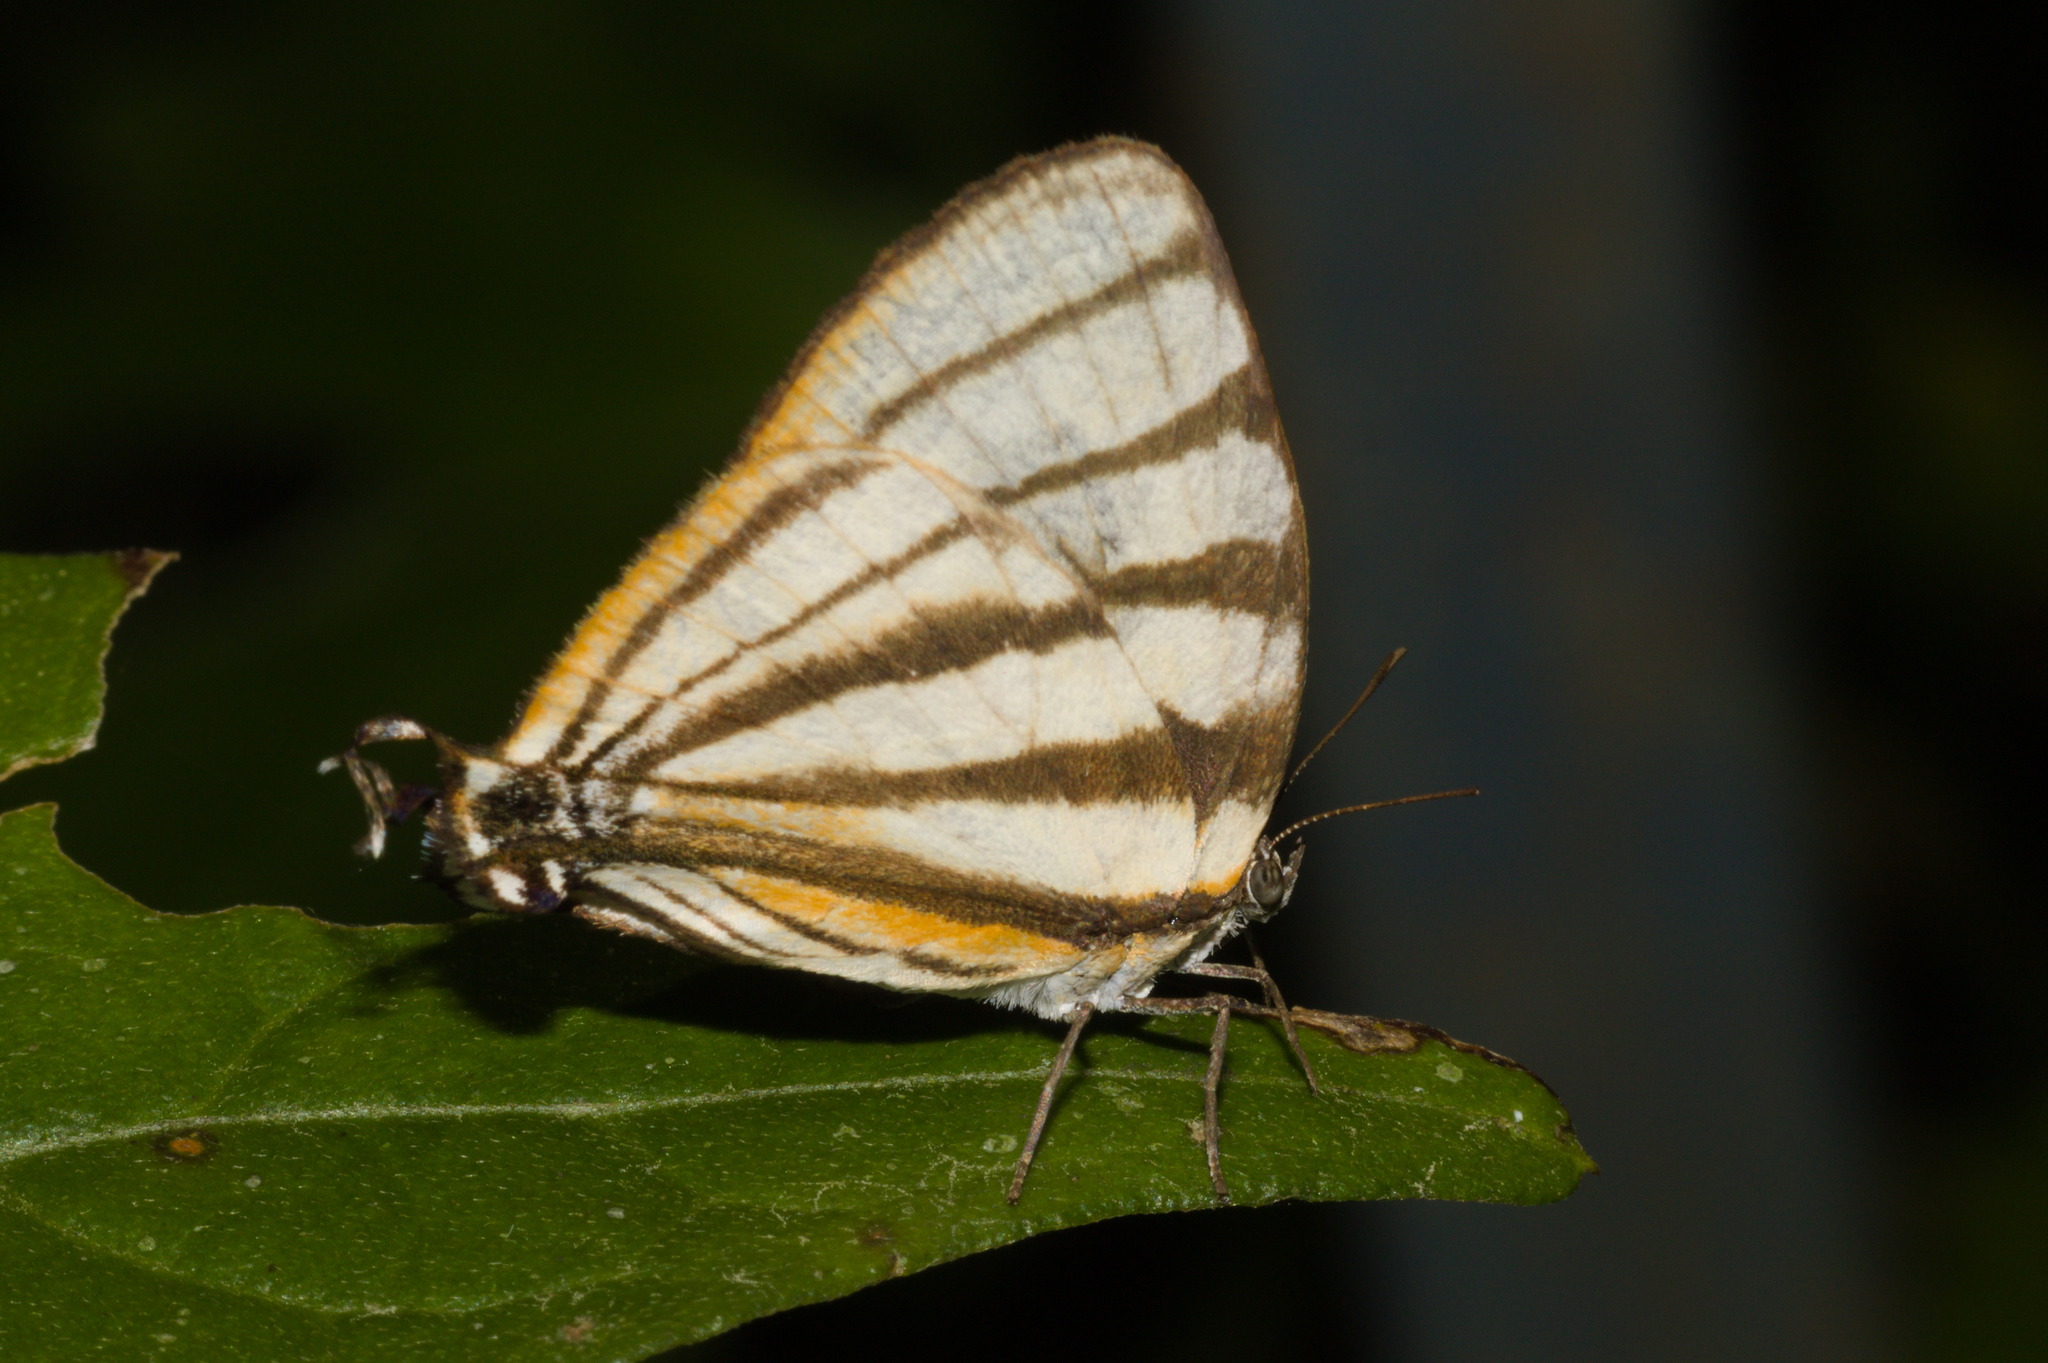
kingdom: Animalia
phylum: Arthropoda
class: Insecta
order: Lepidoptera
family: Lycaenidae
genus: Arawacus
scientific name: Arawacus separata
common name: Separated stripestreak
